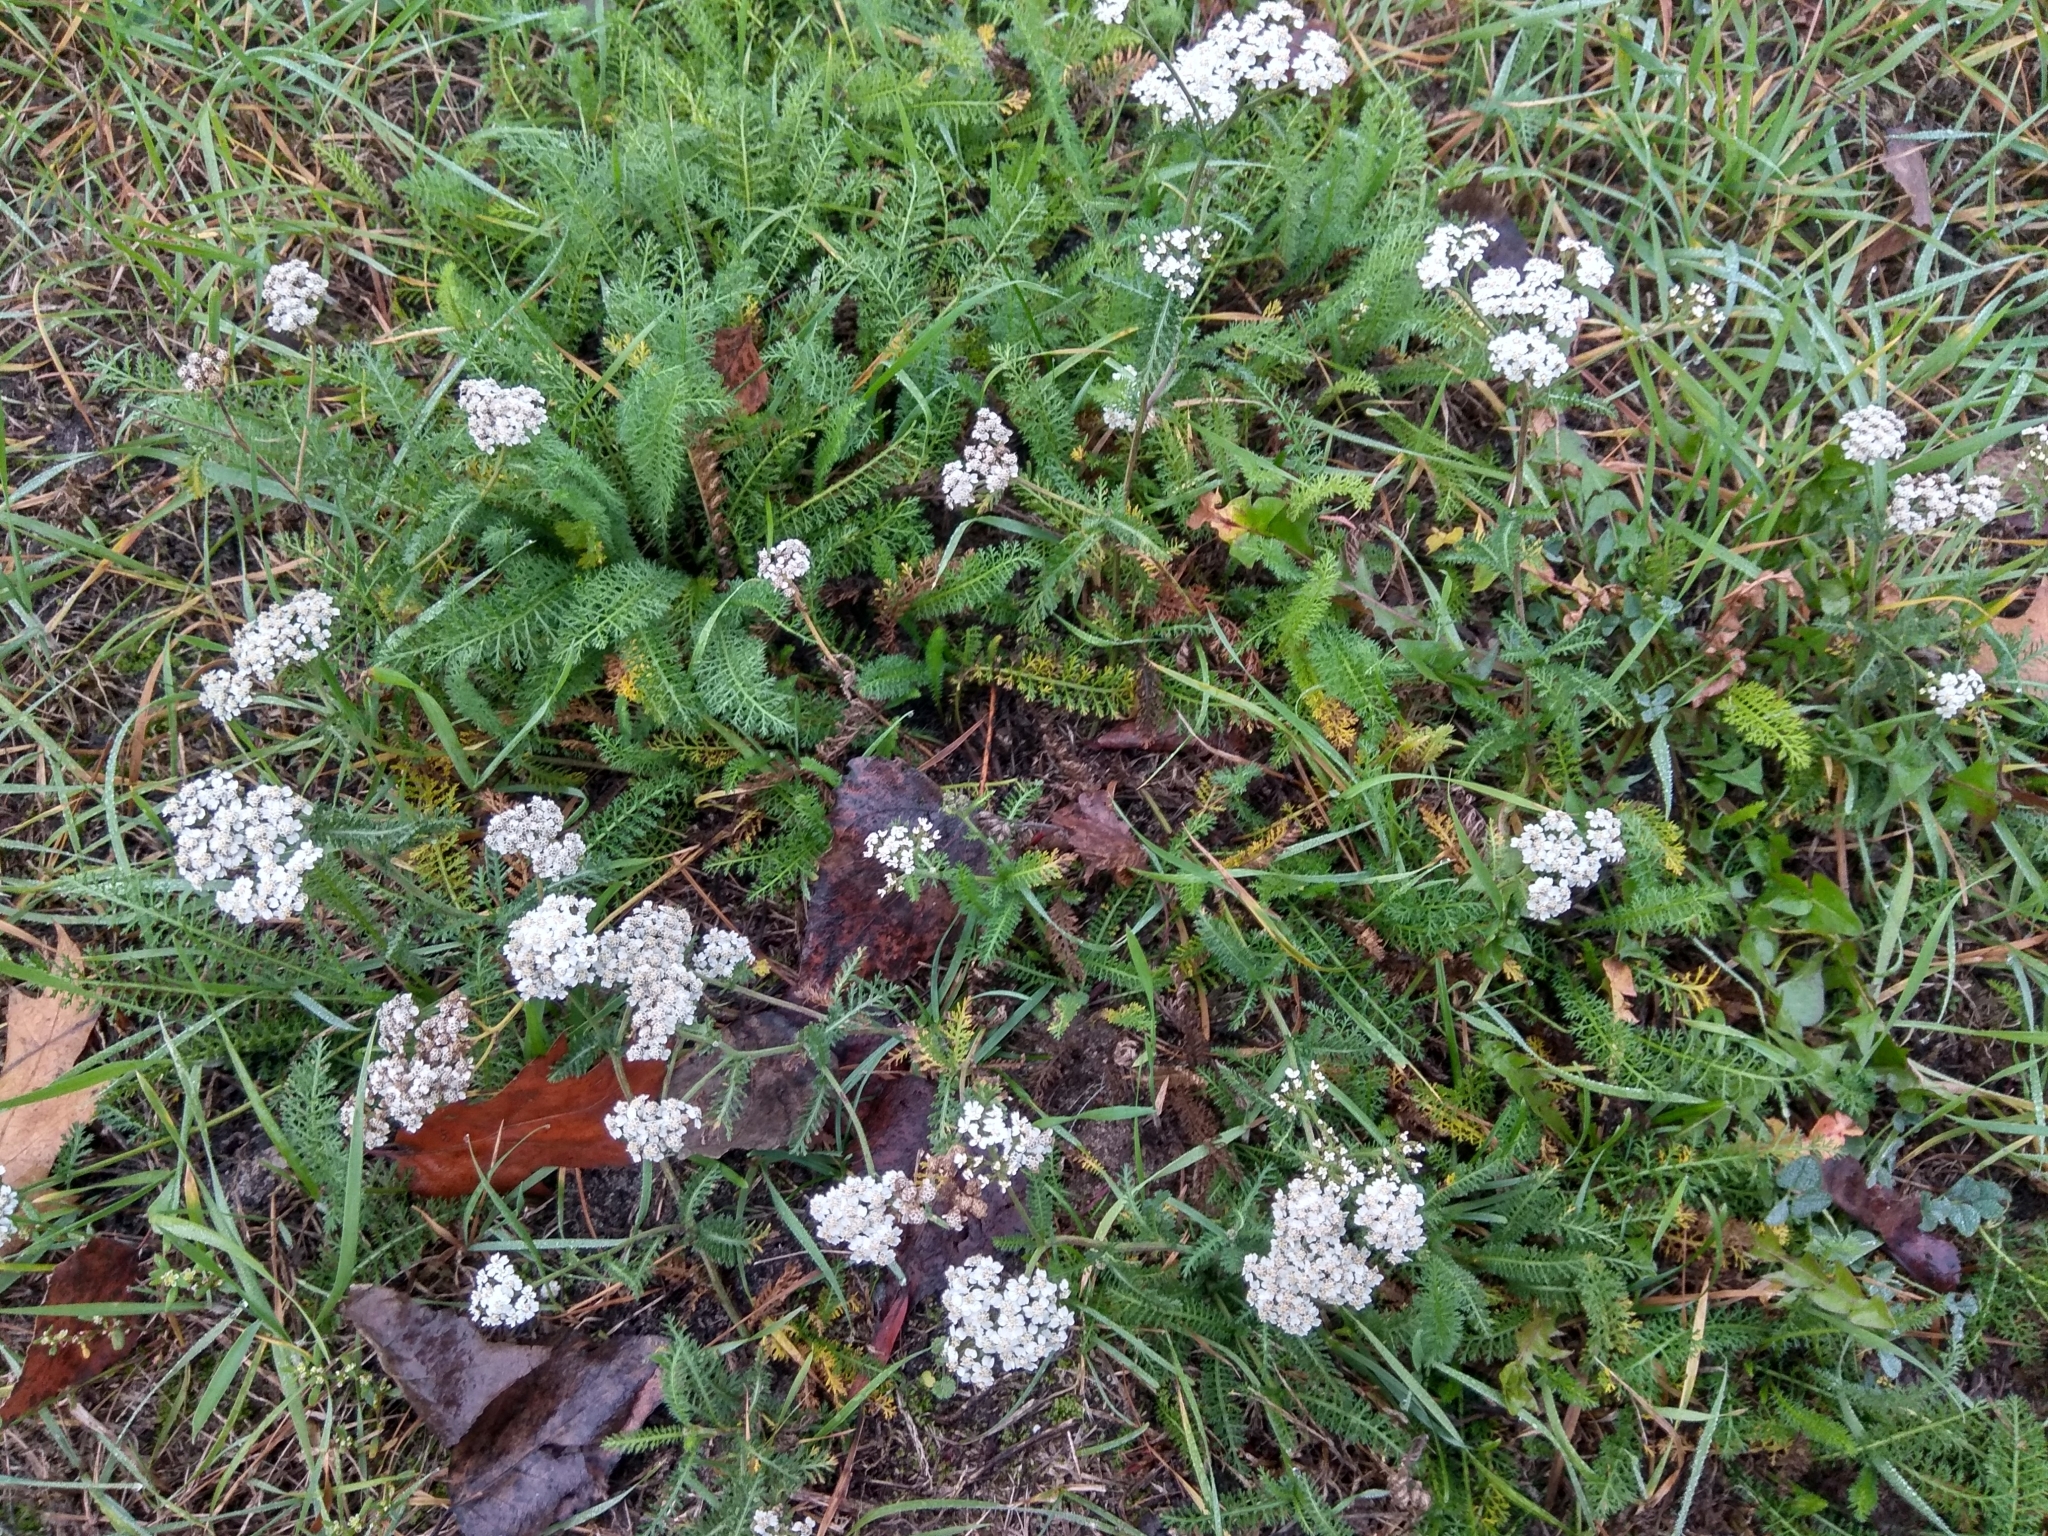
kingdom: Plantae
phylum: Tracheophyta
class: Magnoliopsida
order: Asterales
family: Asteraceae
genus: Achillea
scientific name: Achillea millefolium
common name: Yarrow
